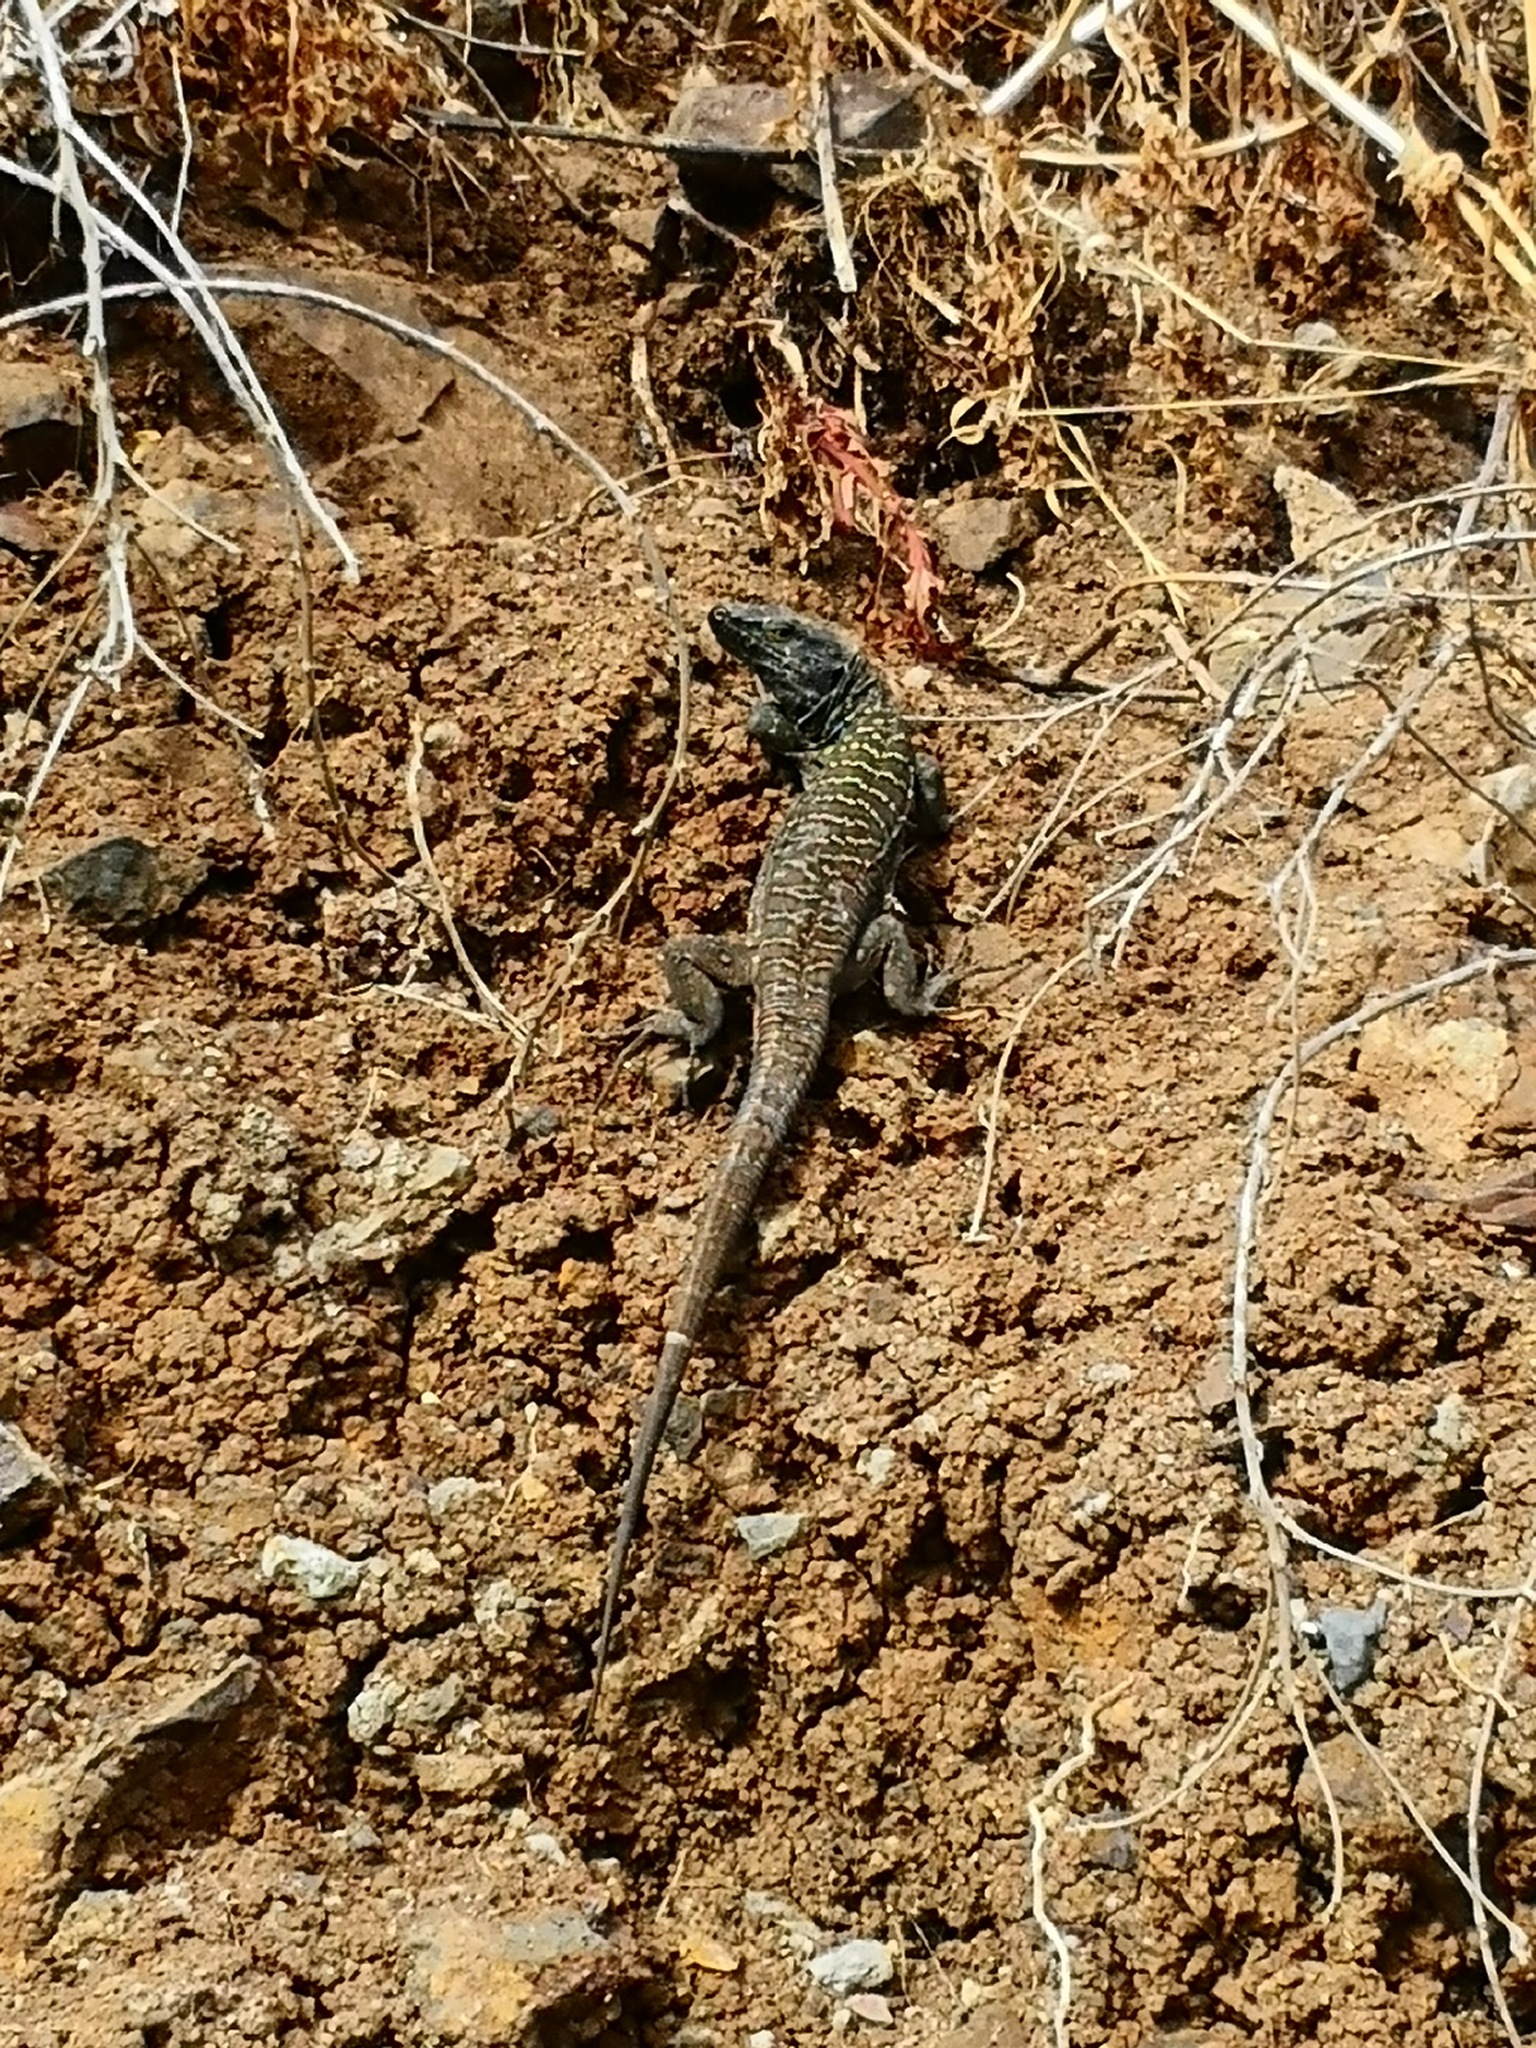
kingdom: Animalia
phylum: Chordata
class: Squamata
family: Lacertidae
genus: Gallotia
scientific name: Gallotia galloti
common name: Gallot's lizard
